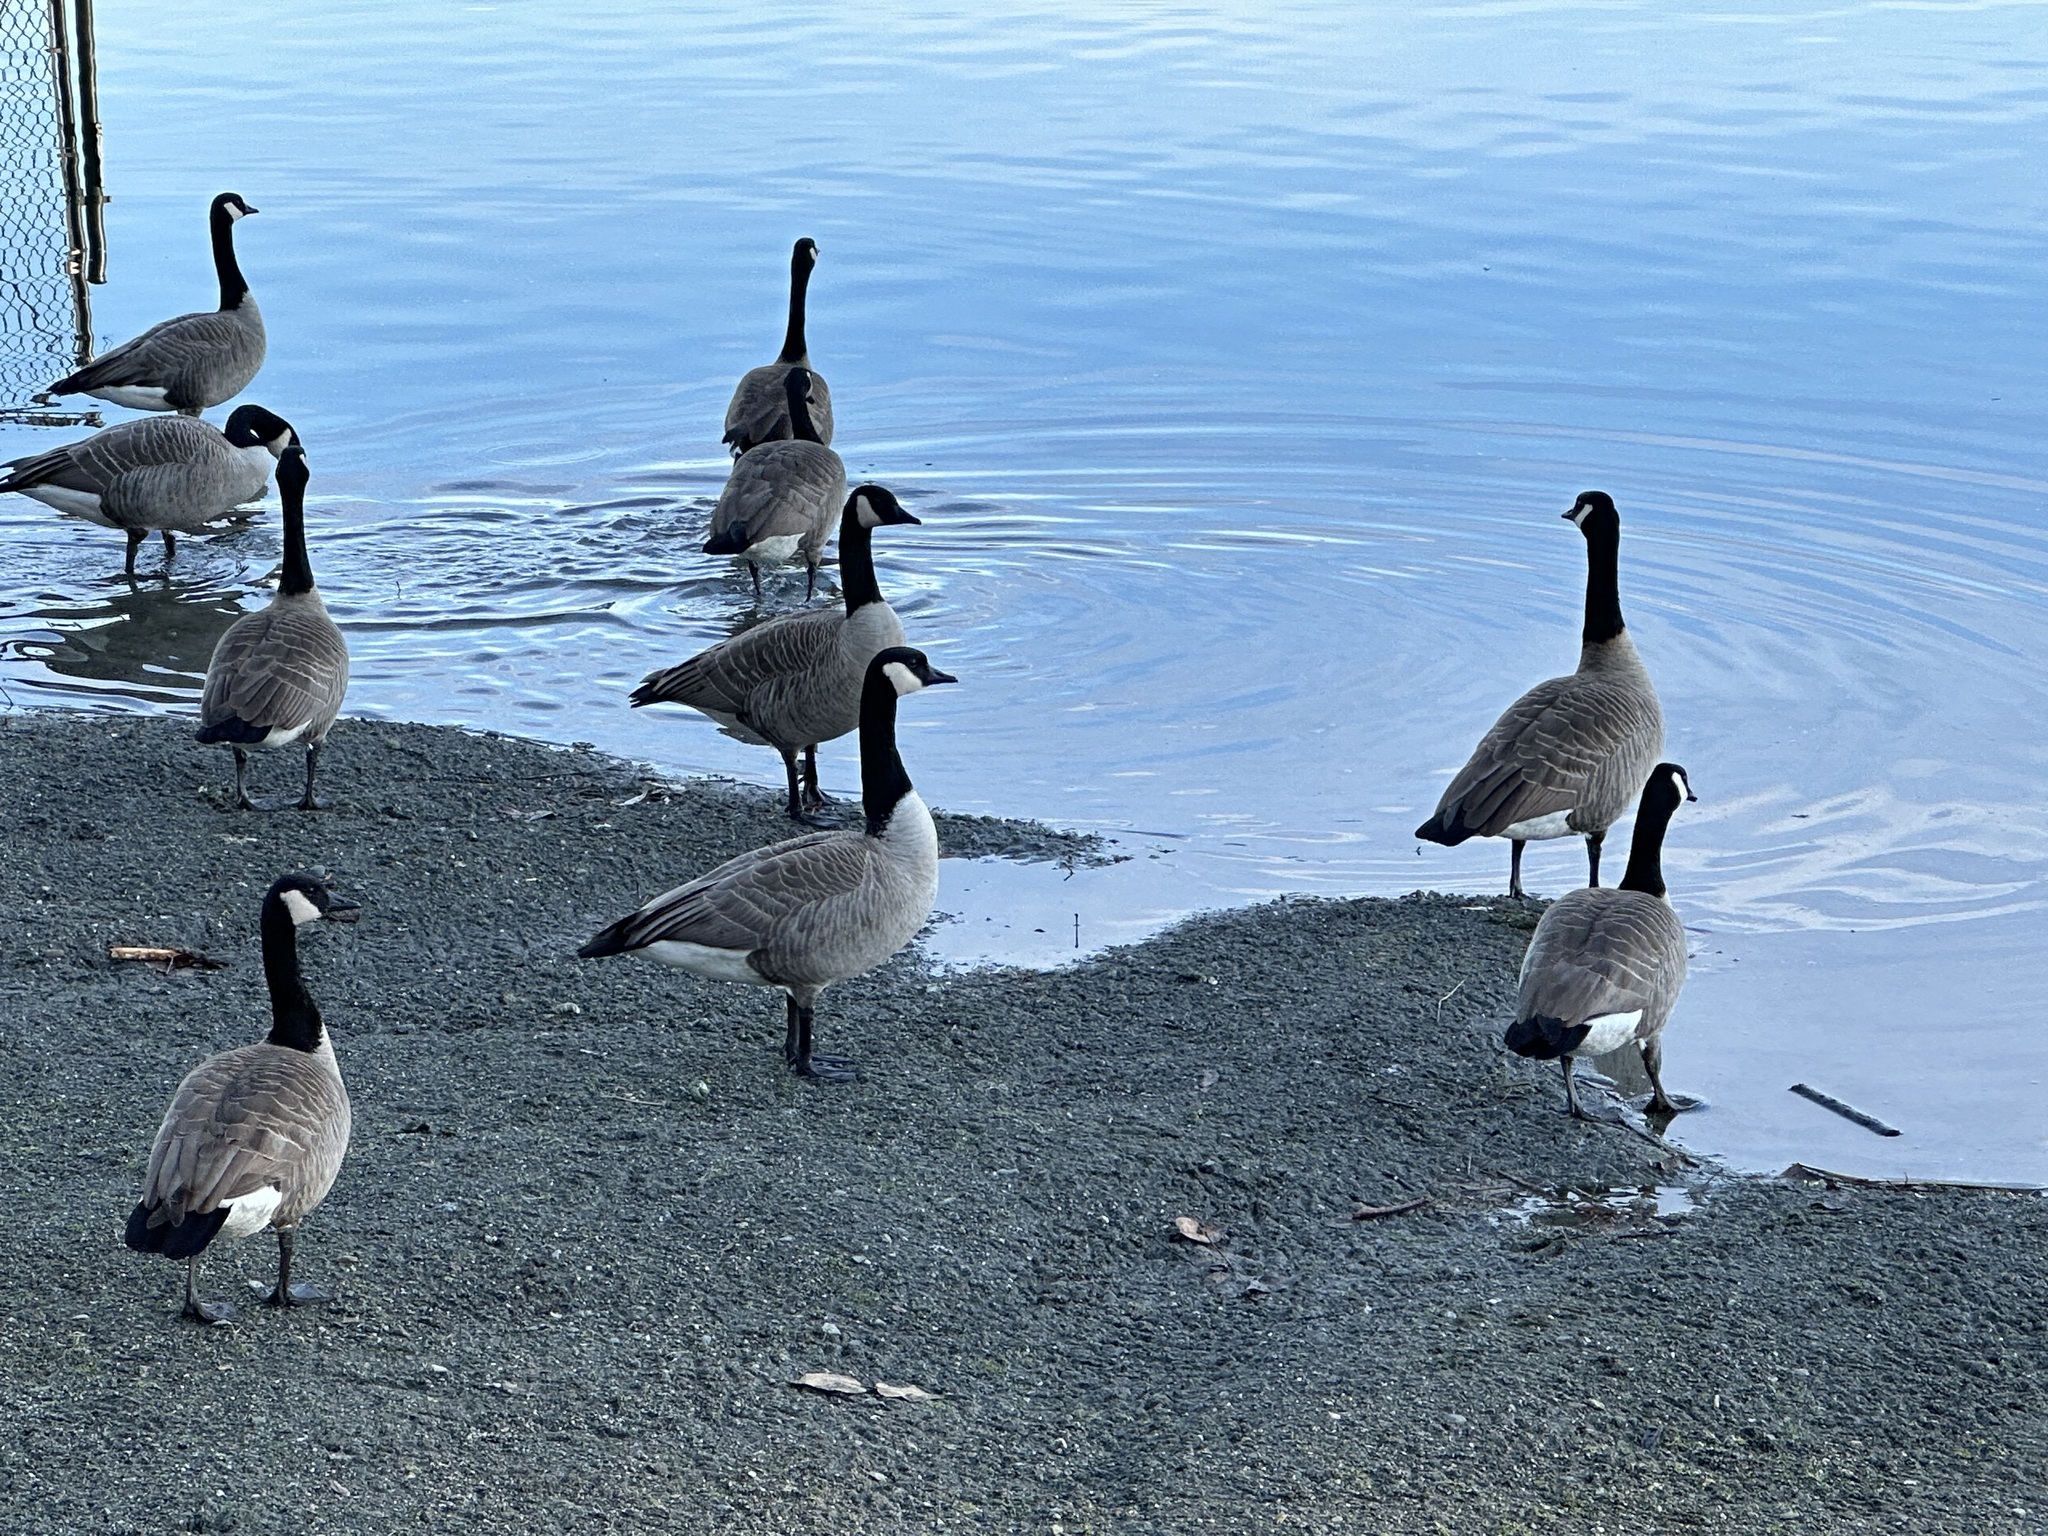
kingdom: Animalia
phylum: Chordata
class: Aves
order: Anseriformes
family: Anatidae
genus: Branta
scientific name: Branta canadensis
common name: Canada goose
